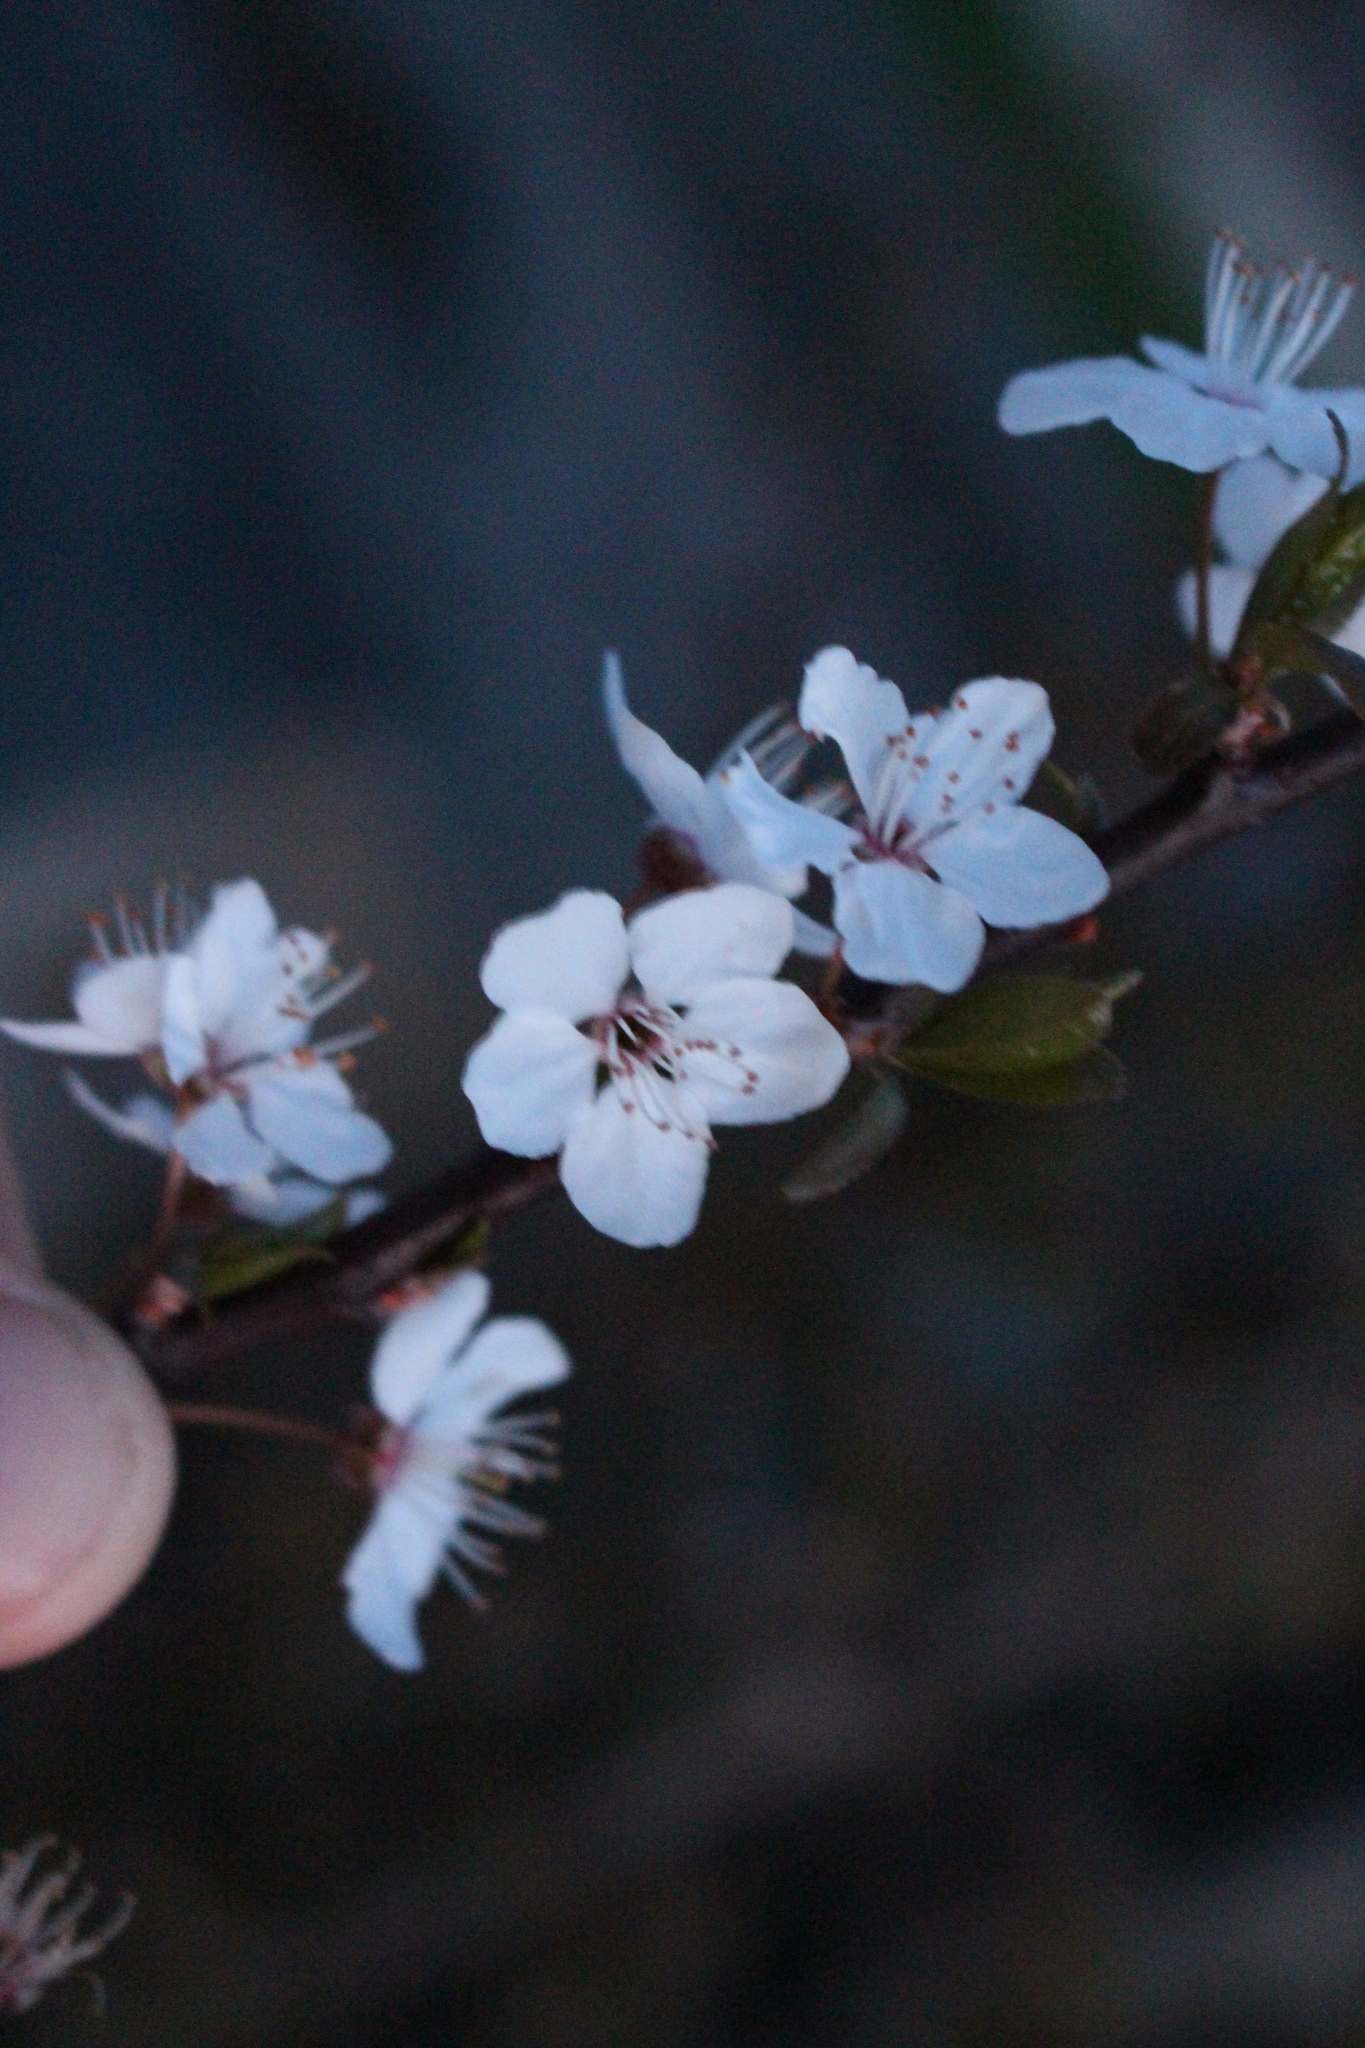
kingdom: Plantae
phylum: Tracheophyta
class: Magnoliopsida
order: Rosales
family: Rosaceae
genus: Prunus
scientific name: Prunus cerasifera
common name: Cherry plum
